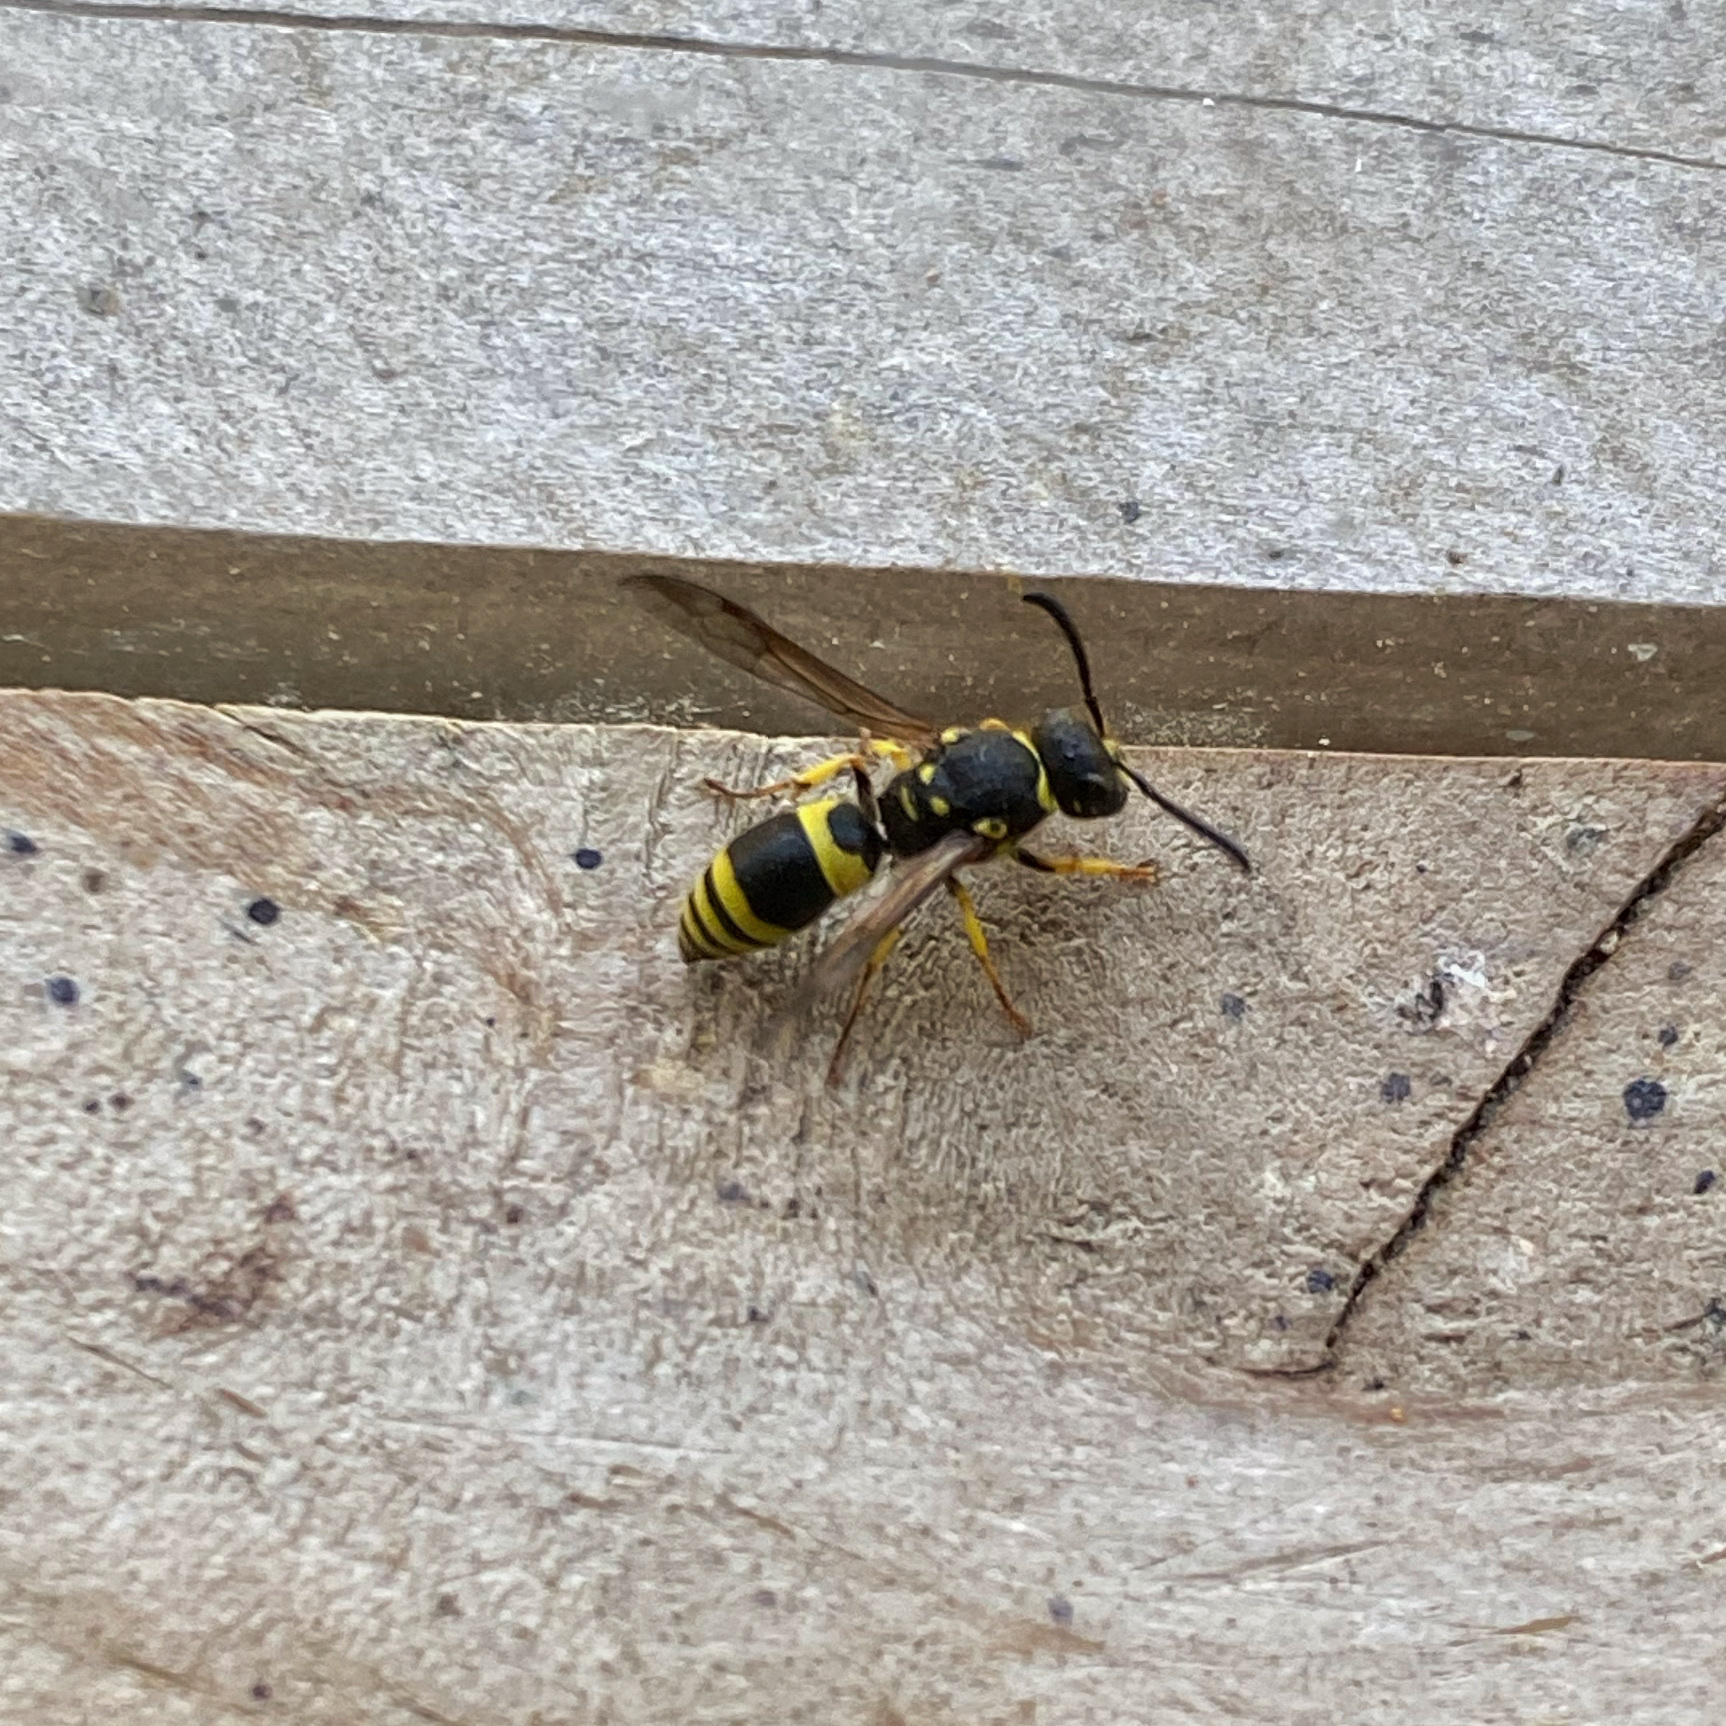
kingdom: Animalia
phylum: Arthropoda
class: Insecta
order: Hymenoptera
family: Vespidae
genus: Ancistrocerus
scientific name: Ancistrocerus gazella
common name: European tube wasp
